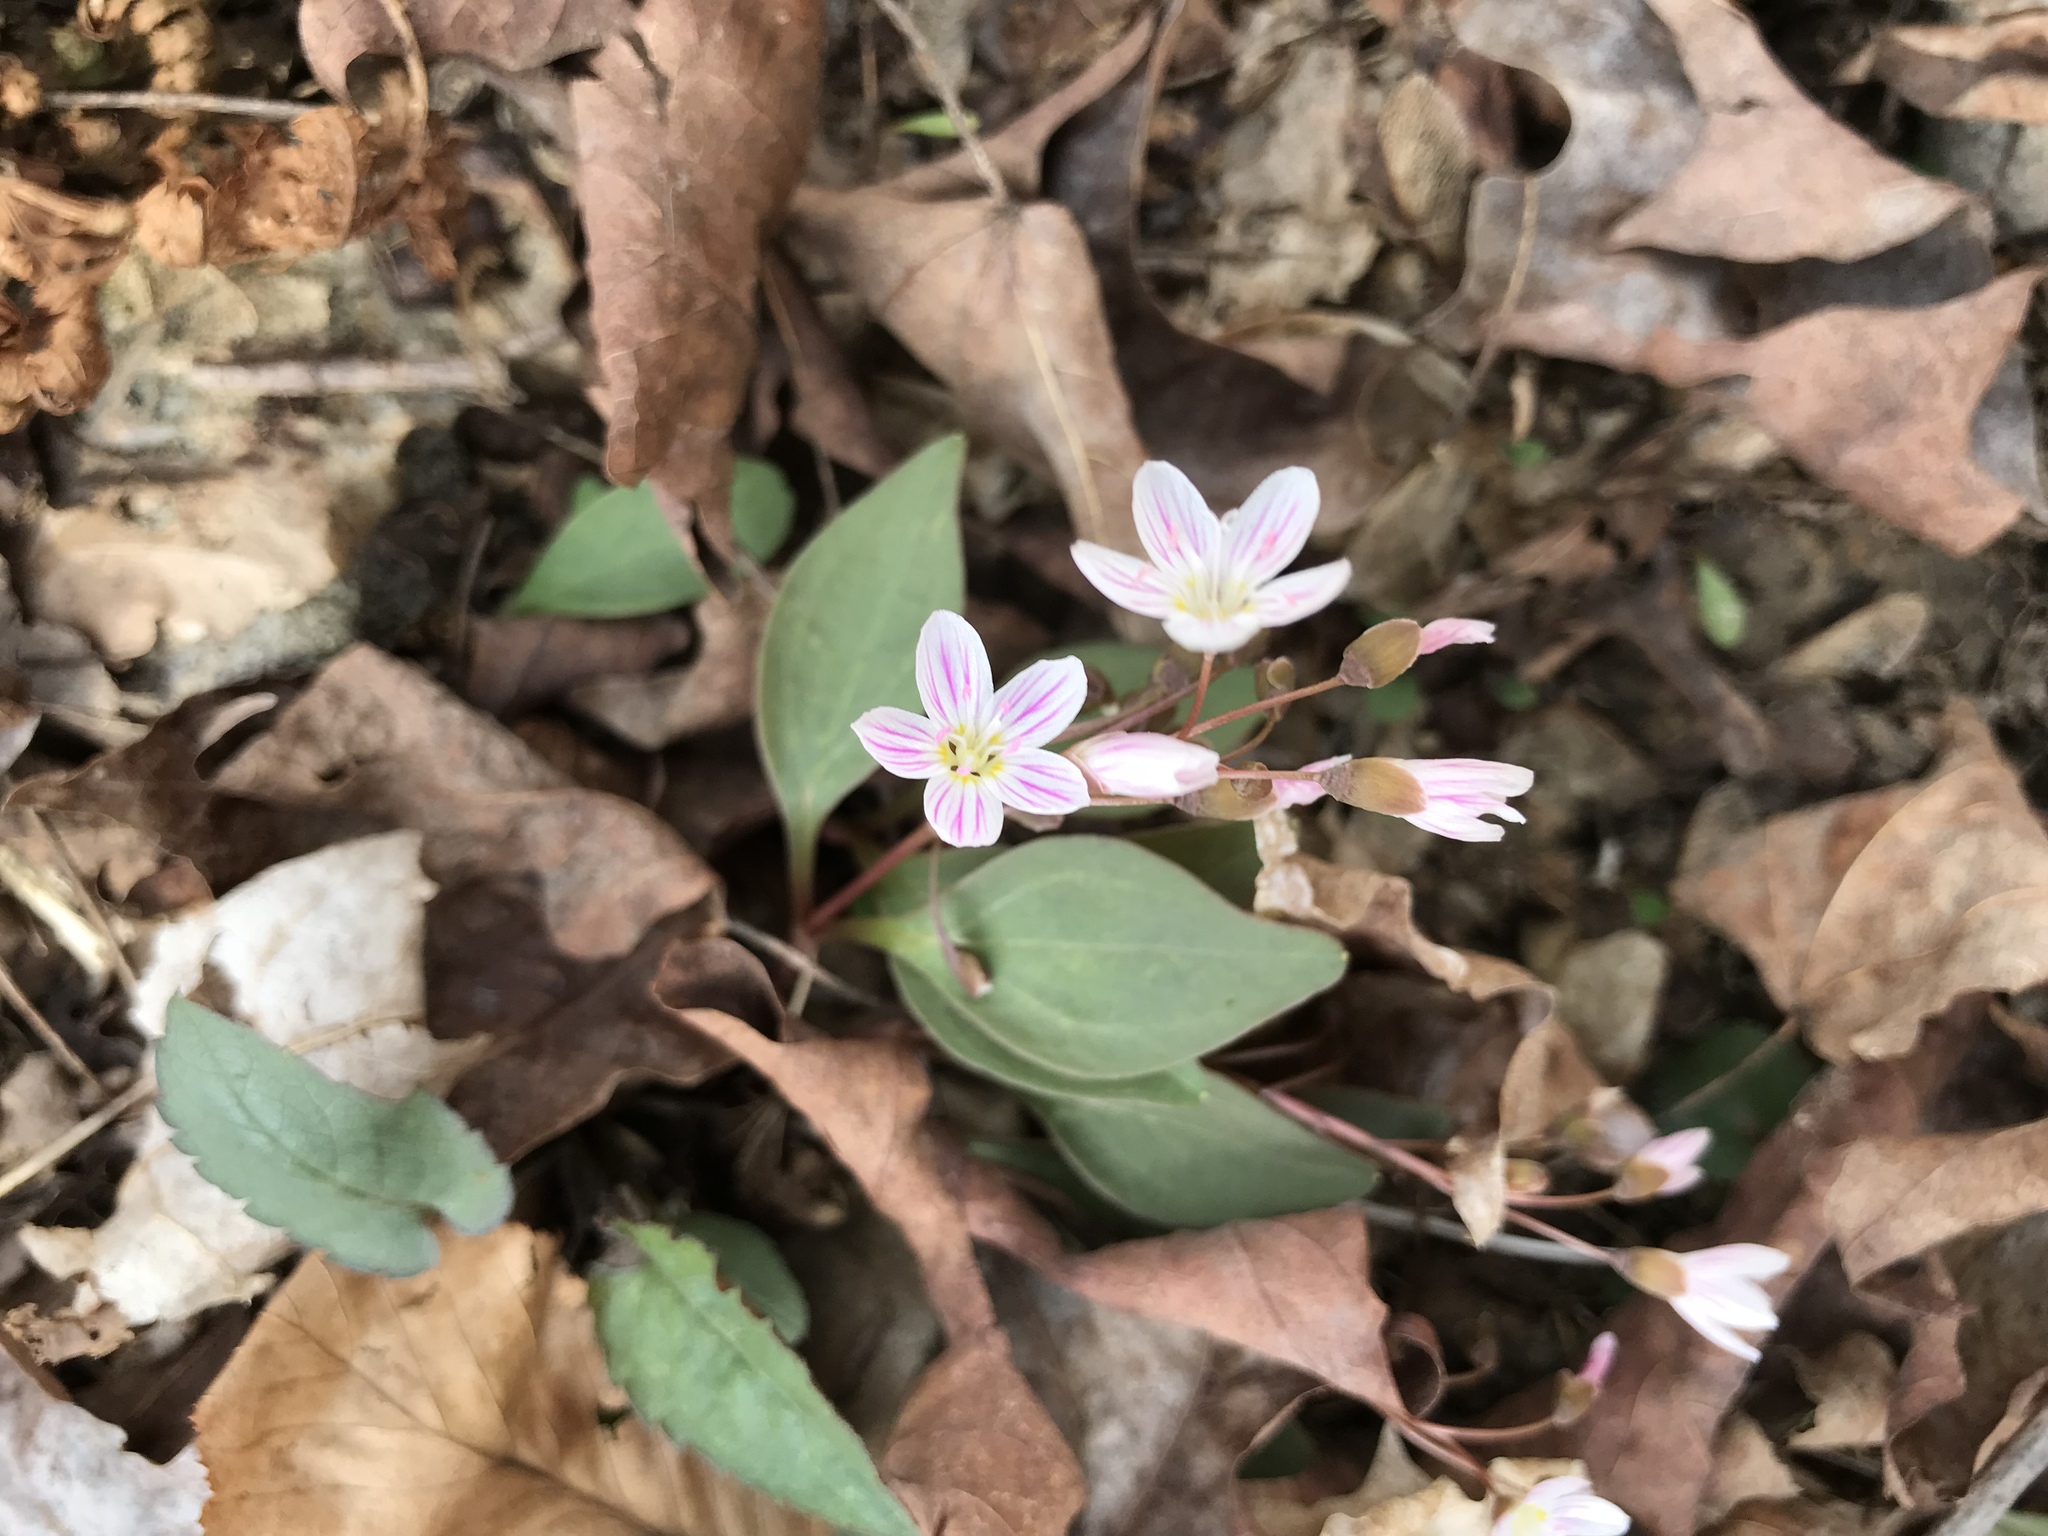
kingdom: Plantae
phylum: Tracheophyta
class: Magnoliopsida
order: Caryophyllales
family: Montiaceae
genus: Claytonia
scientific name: Claytonia caroliniana
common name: Carolina spring beauty
